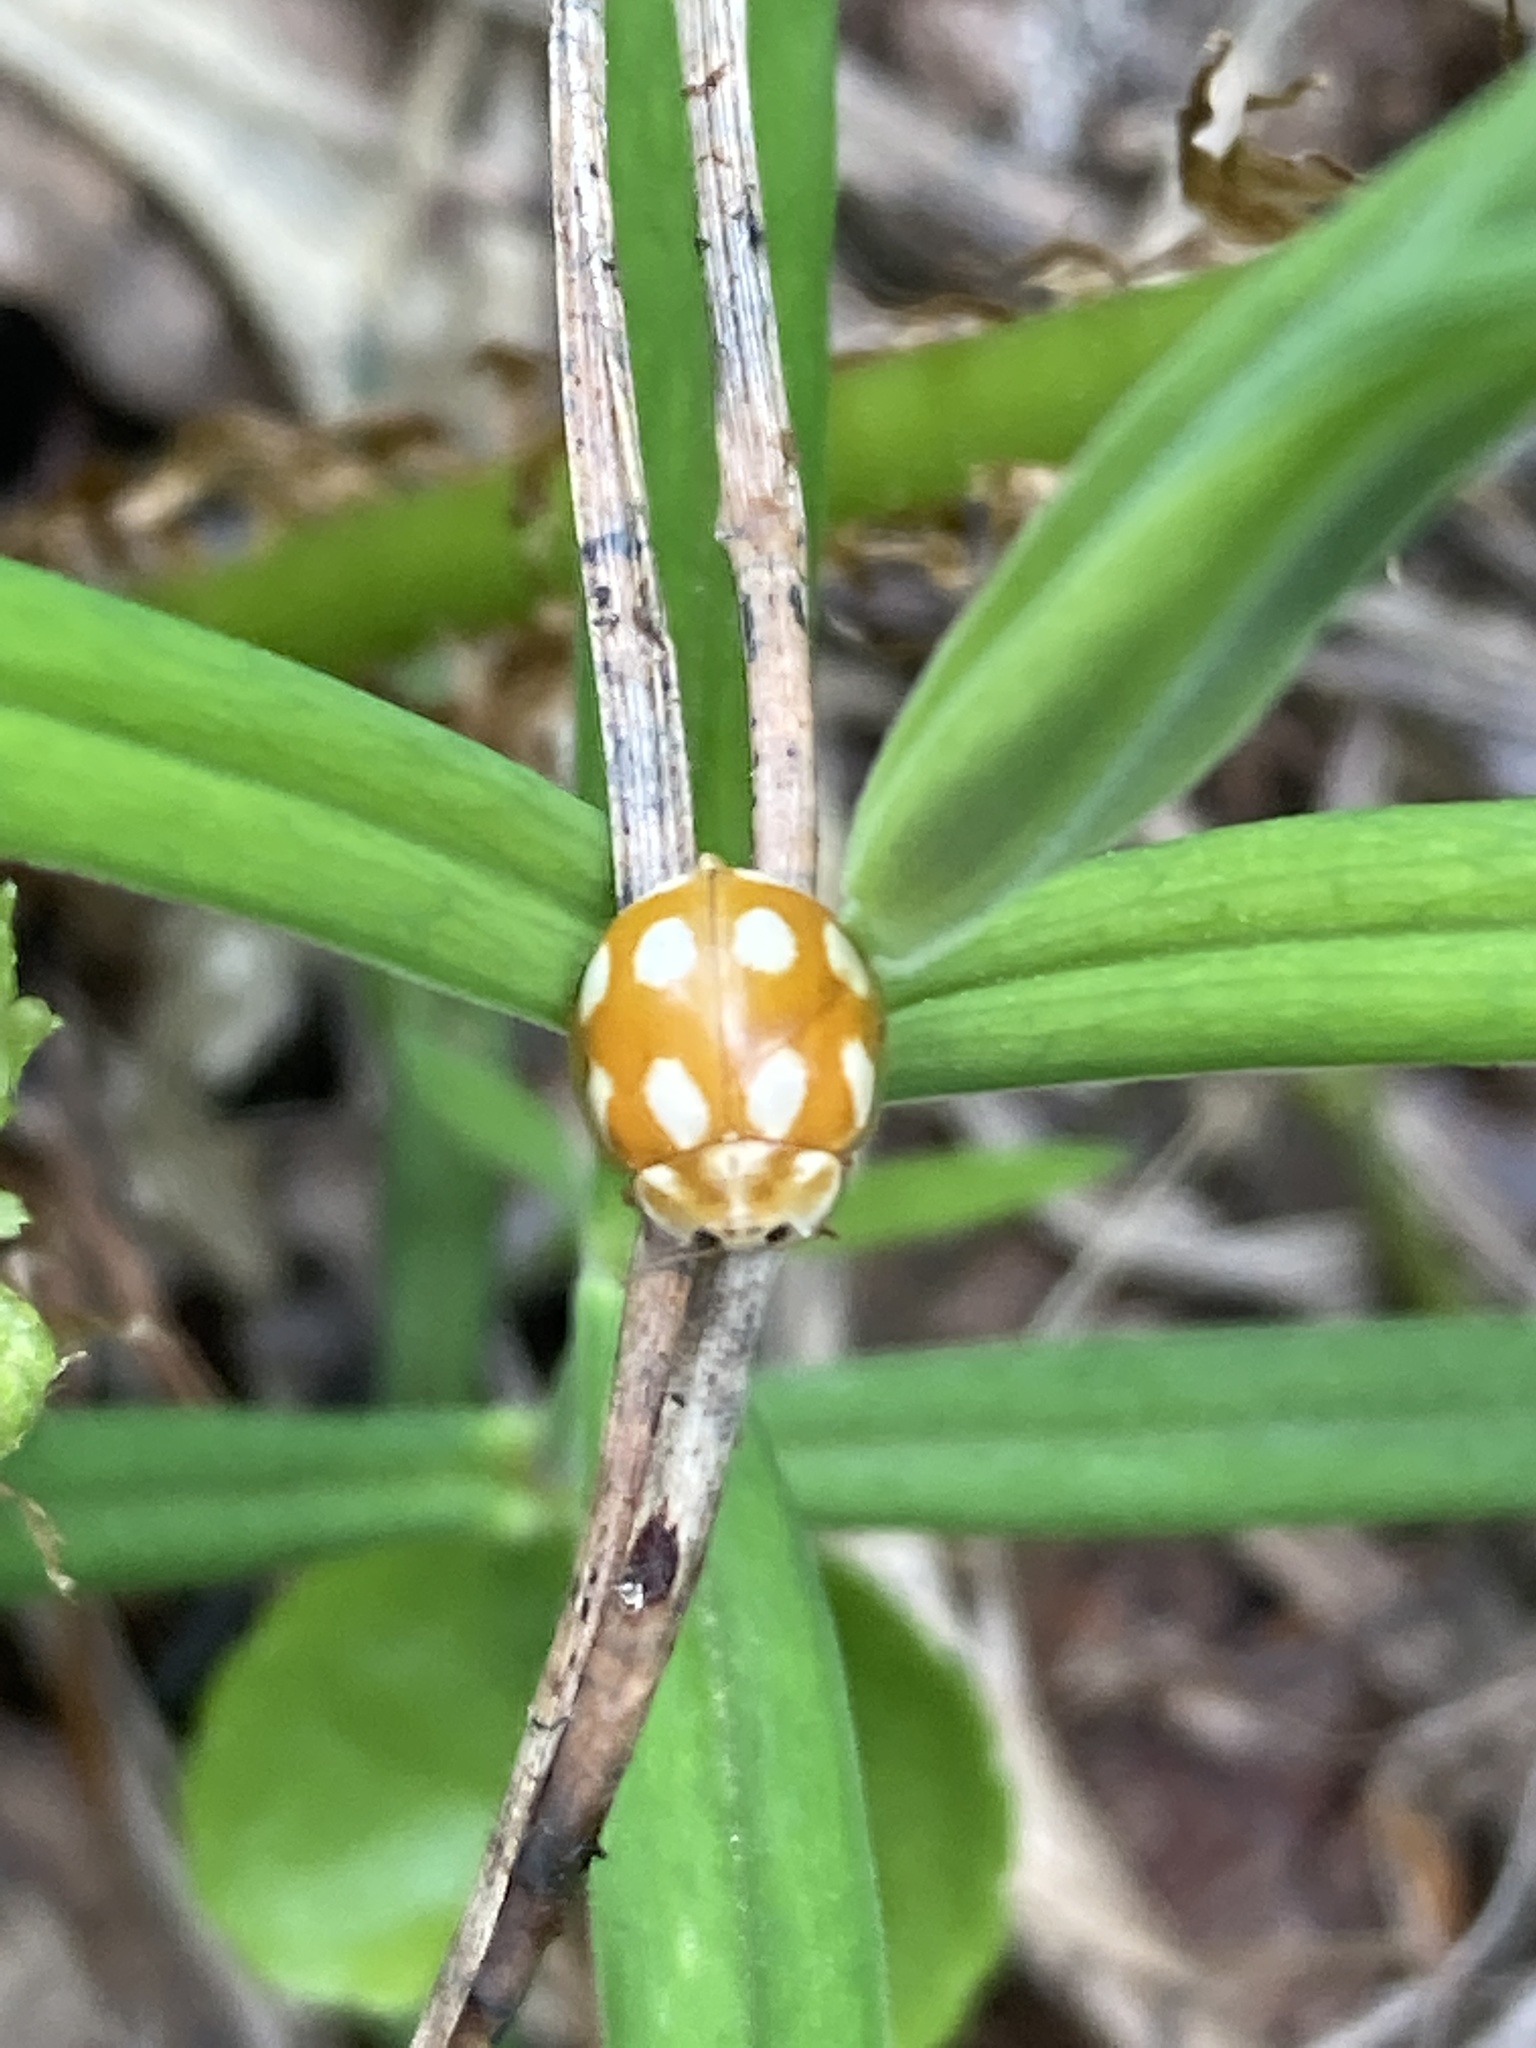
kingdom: Animalia
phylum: Arthropoda
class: Insecta
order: Coleoptera
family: Coccinellidae
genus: Calvia
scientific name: Calvia decemguttata
